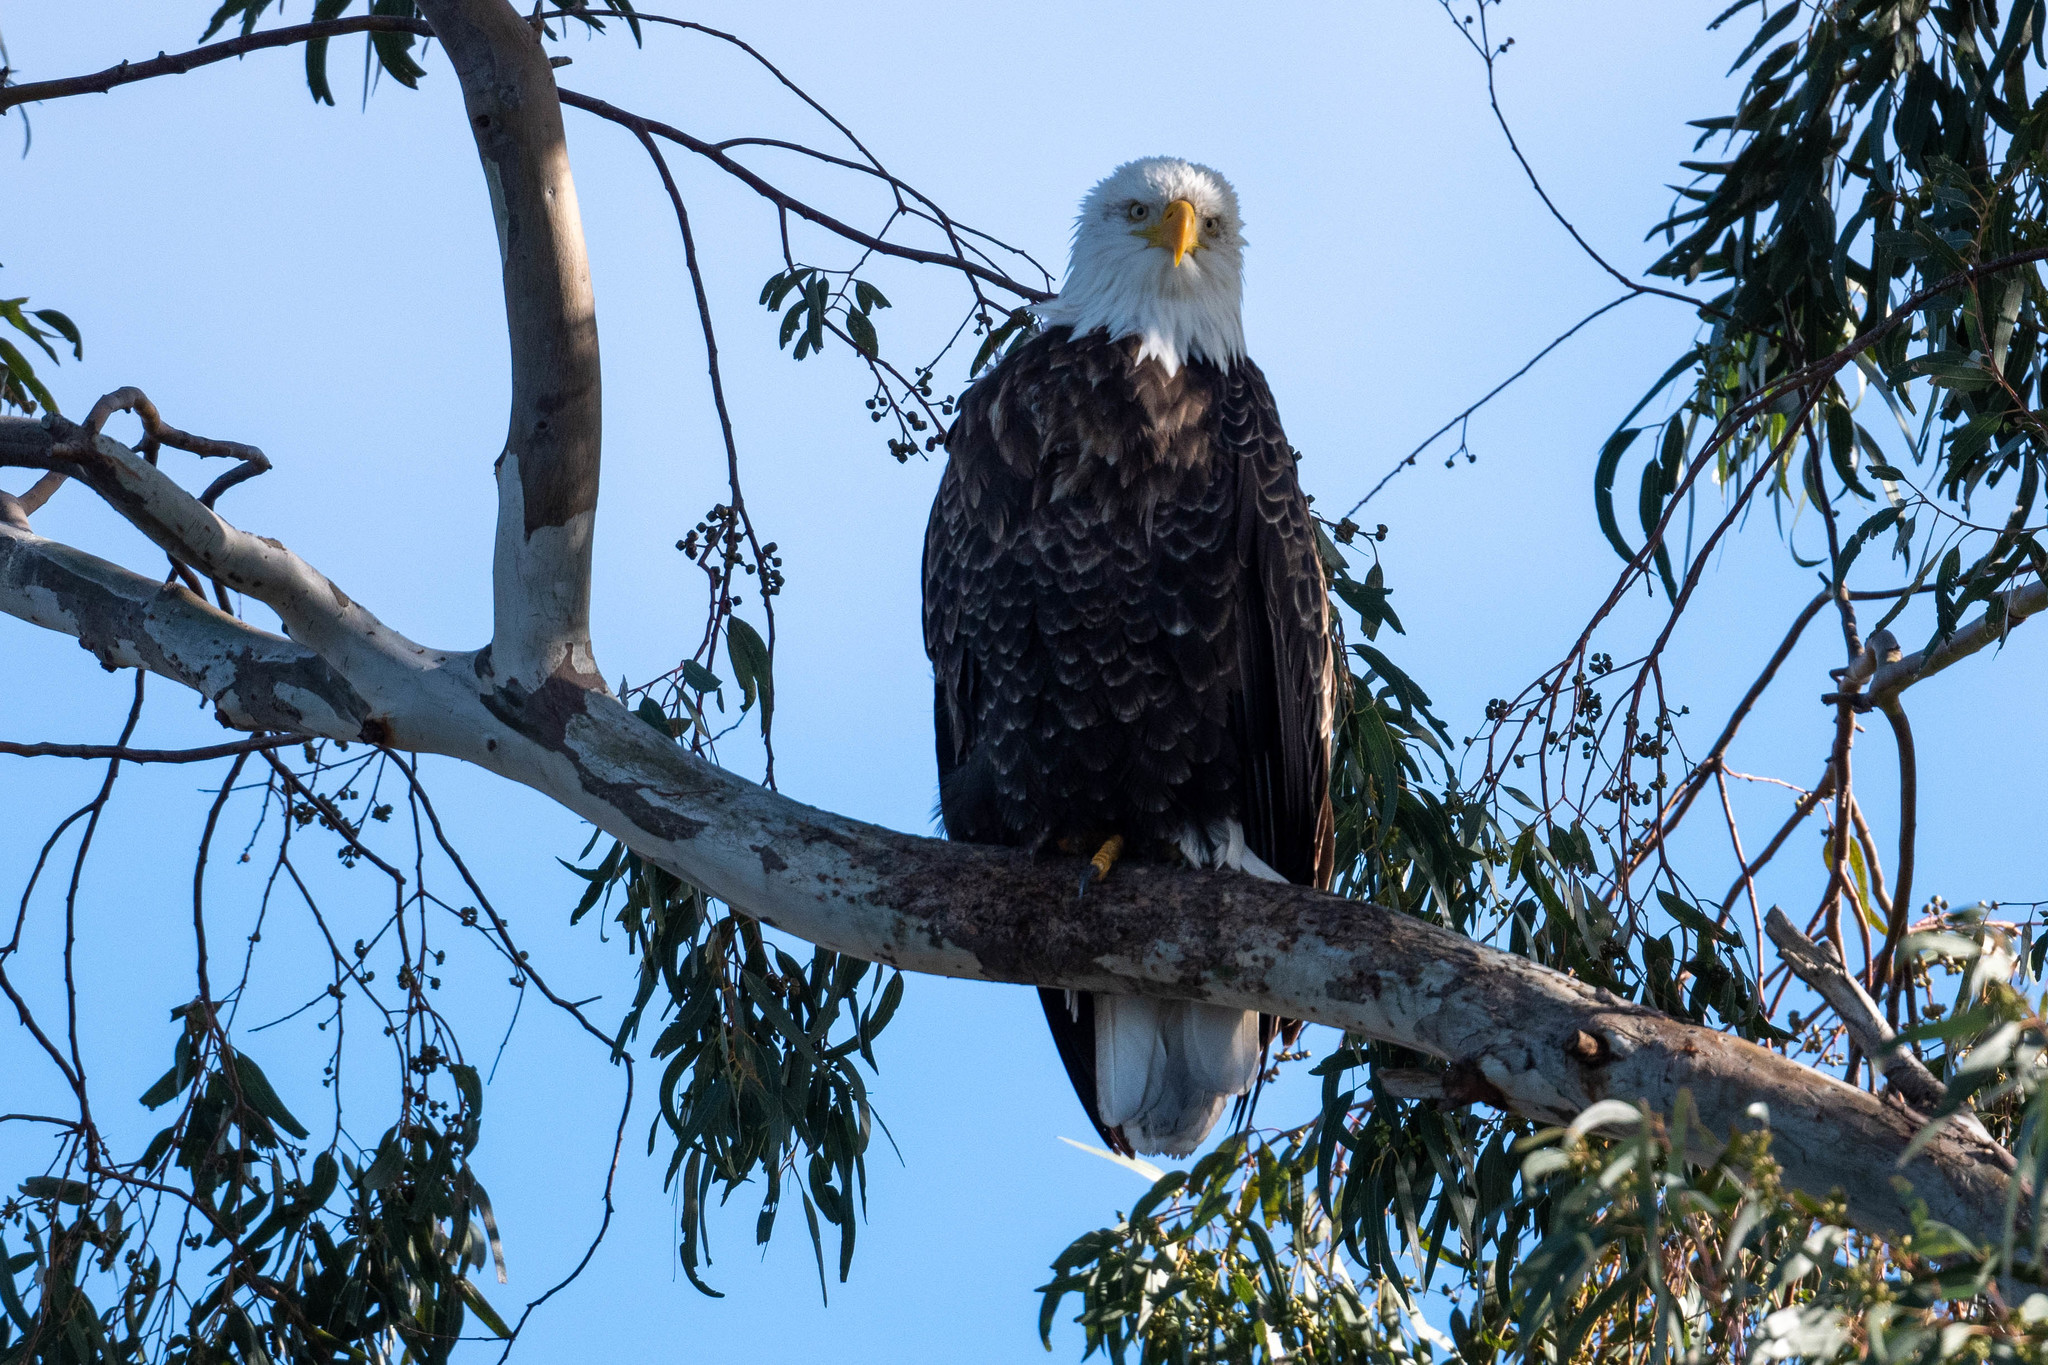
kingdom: Animalia
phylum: Chordata
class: Aves
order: Accipitriformes
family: Accipitridae
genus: Haliaeetus
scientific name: Haliaeetus leucocephalus
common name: Bald eagle
